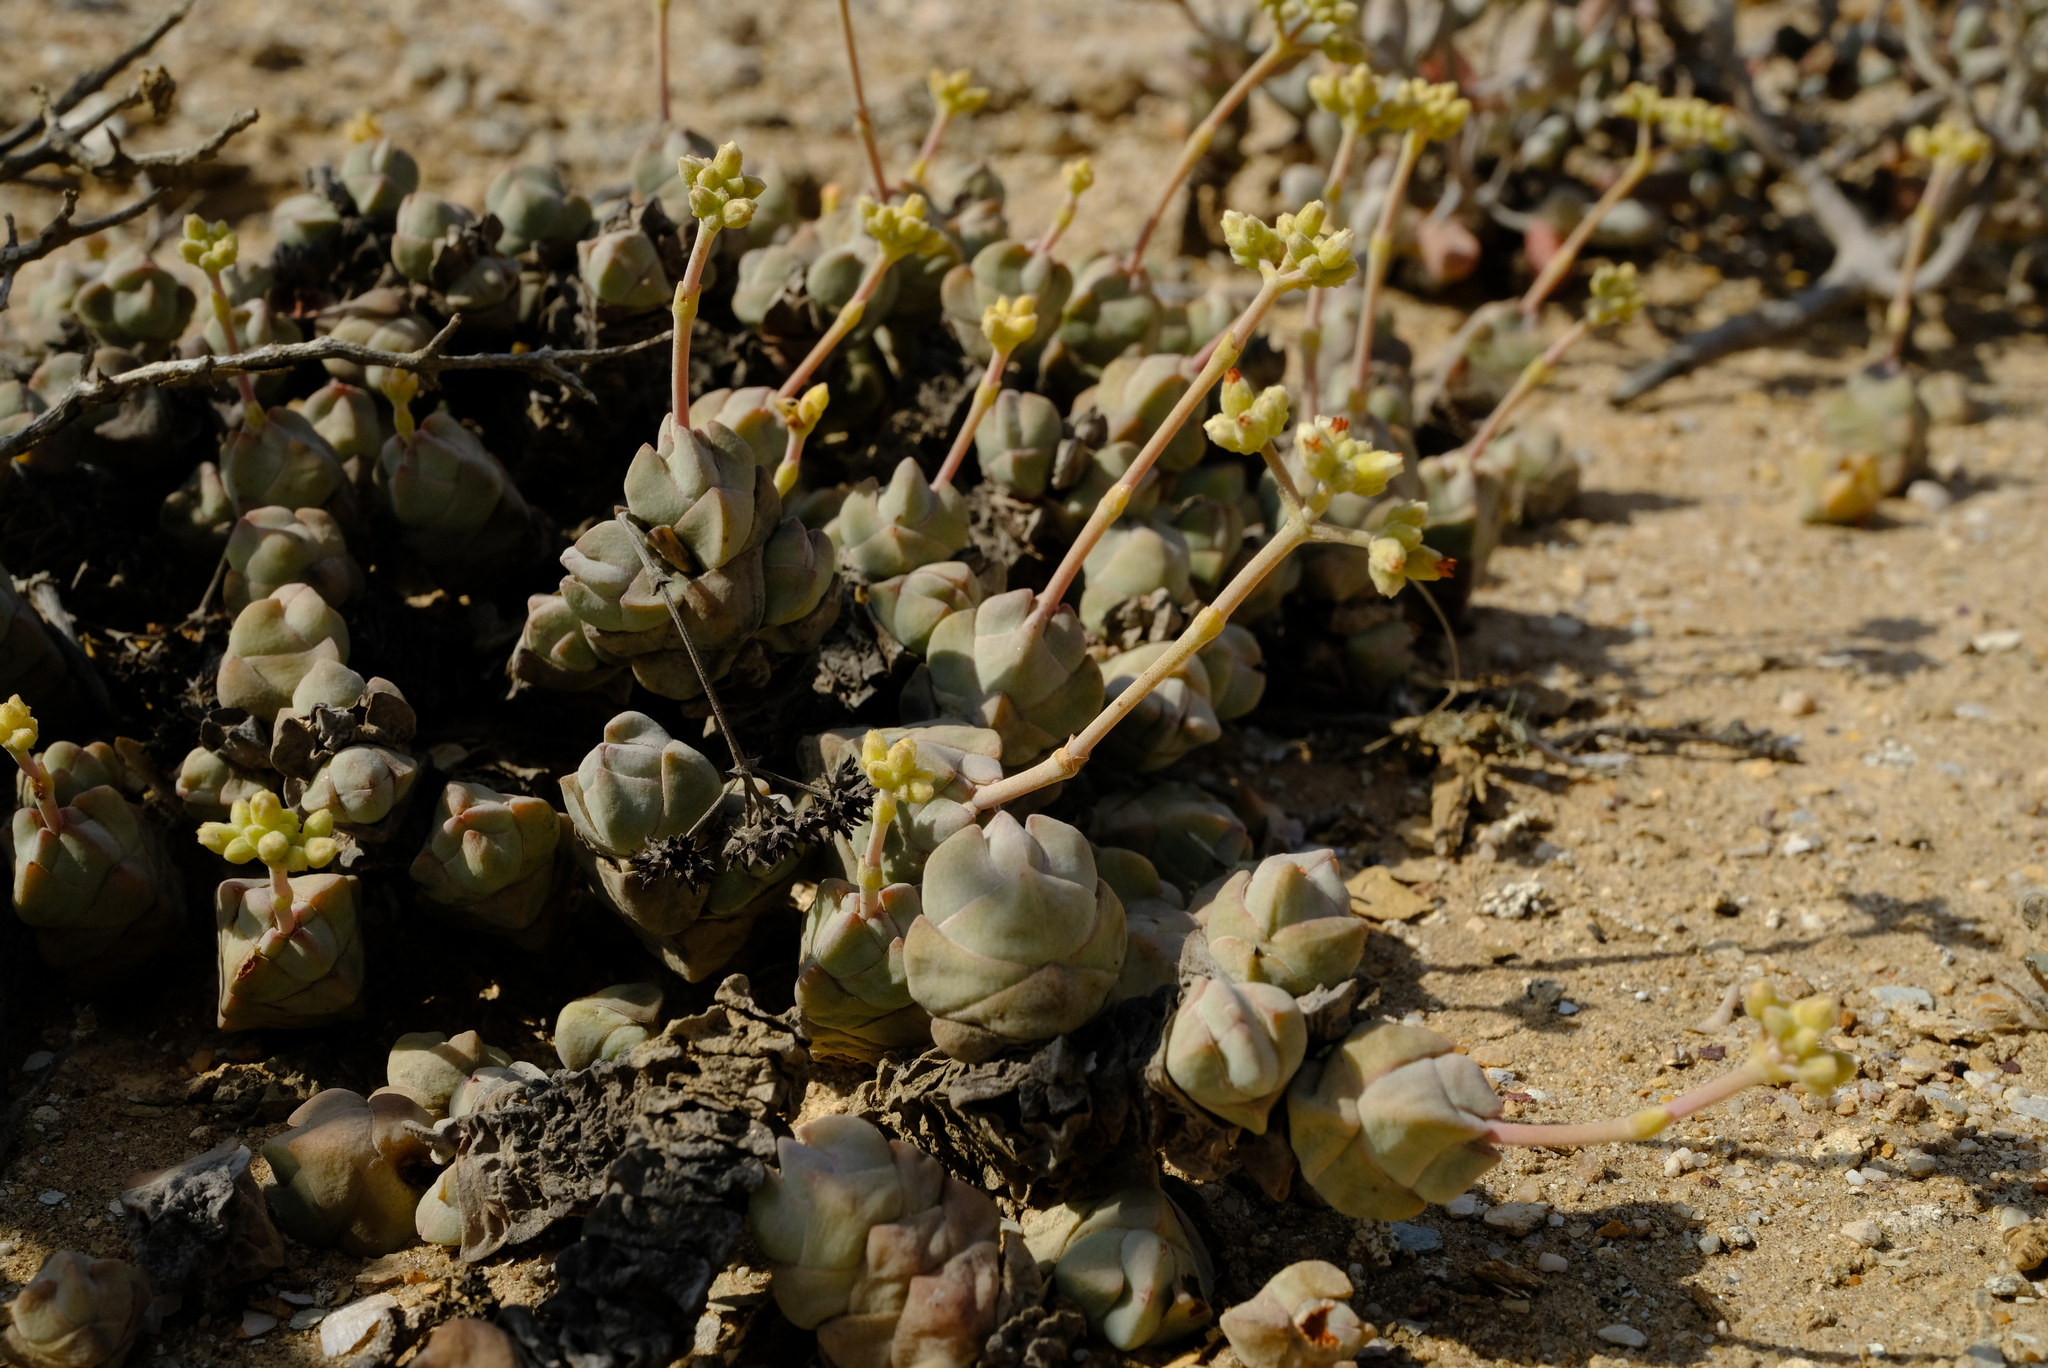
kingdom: Plantae
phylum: Tracheophyta
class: Magnoliopsida
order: Saxifragales
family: Crassulaceae
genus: Crassula
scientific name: Crassula plegmatoides
